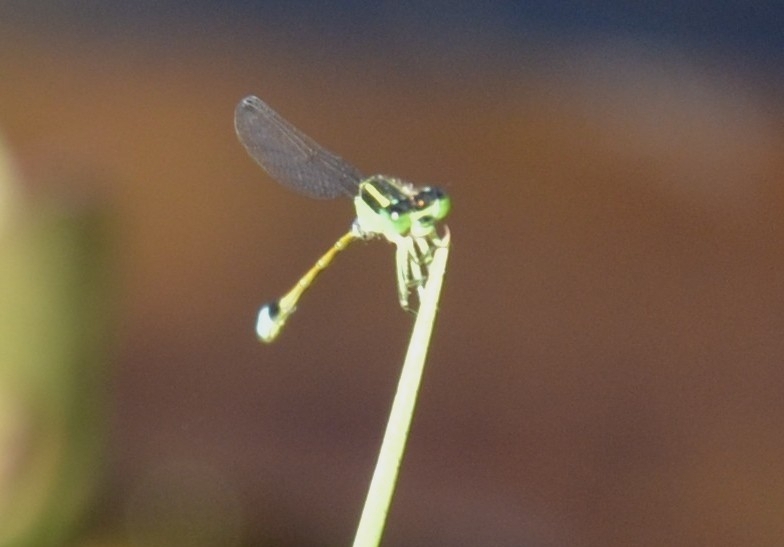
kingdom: Animalia
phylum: Arthropoda
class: Insecta
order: Odonata
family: Coenagrionidae
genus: Ischnura
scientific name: Ischnura senegalensis
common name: Tropical bluetail
